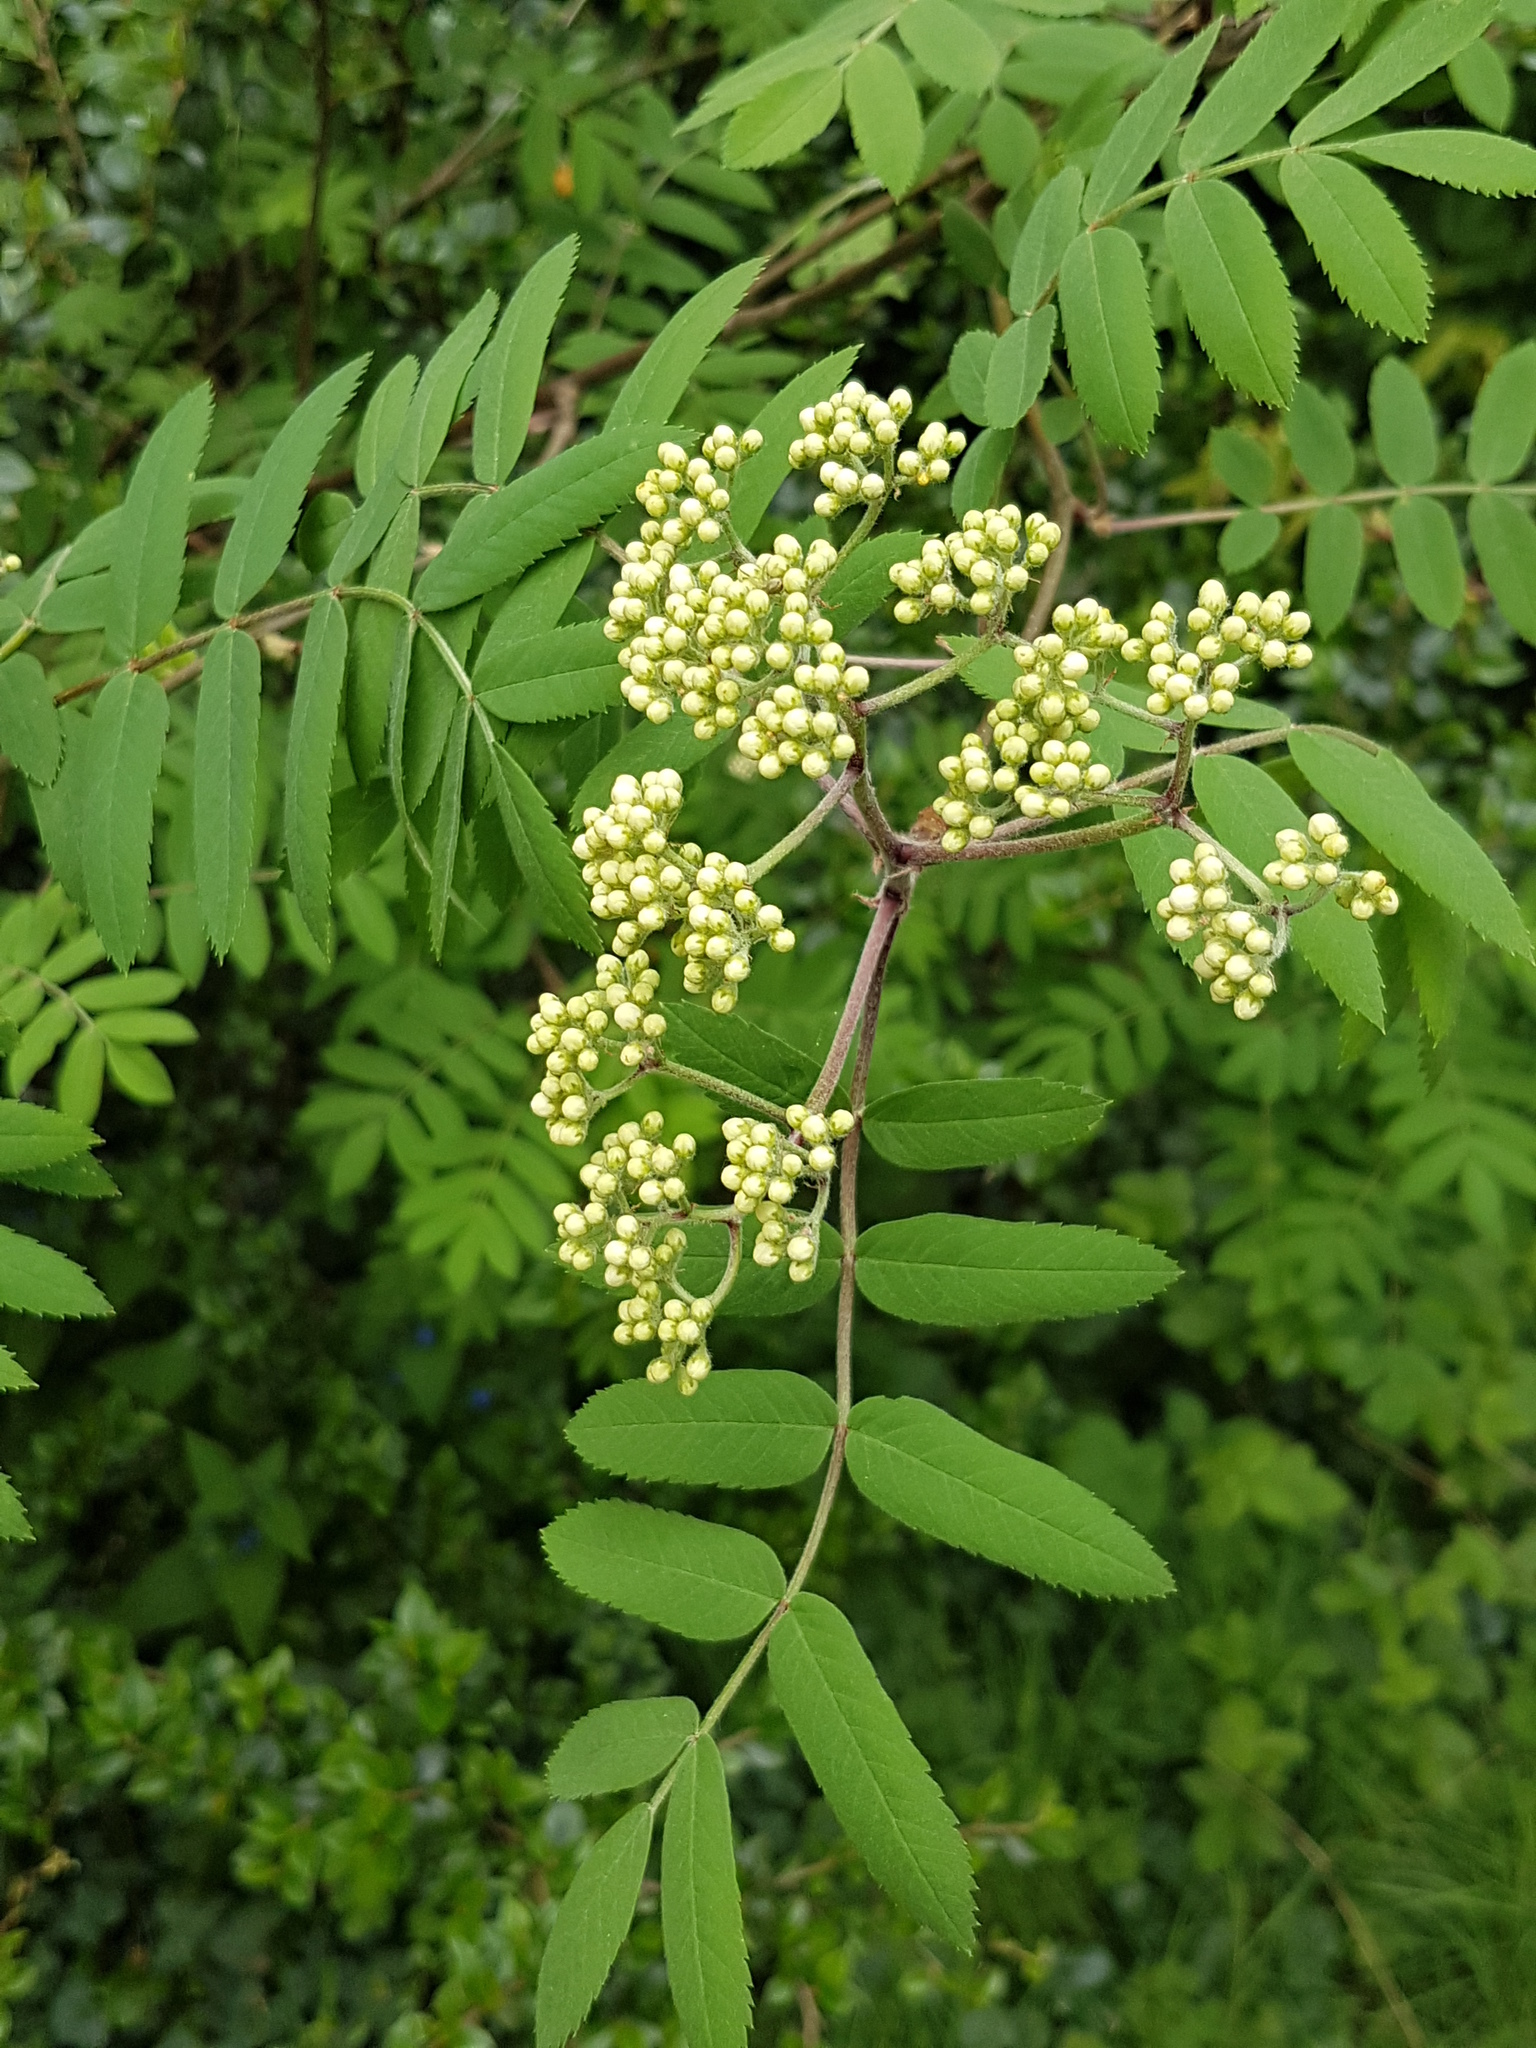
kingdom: Plantae
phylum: Tracheophyta
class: Magnoliopsida
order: Rosales
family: Rosaceae
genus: Sorbus
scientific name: Sorbus aucuparia
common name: Rowan
